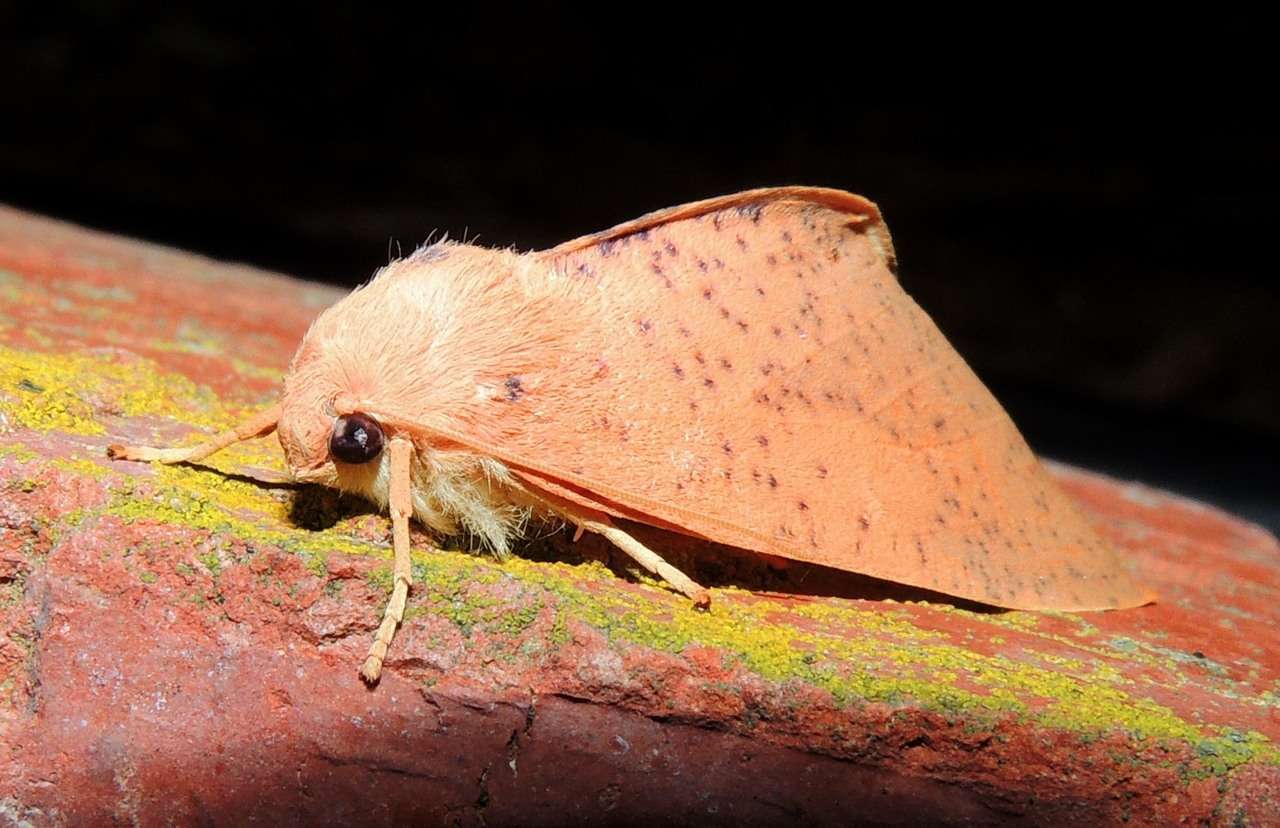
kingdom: Animalia
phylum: Arthropoda
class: Insecta
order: Lepidoptera
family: Geometridae
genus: Plesanemma
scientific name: Plesanemma fucata
